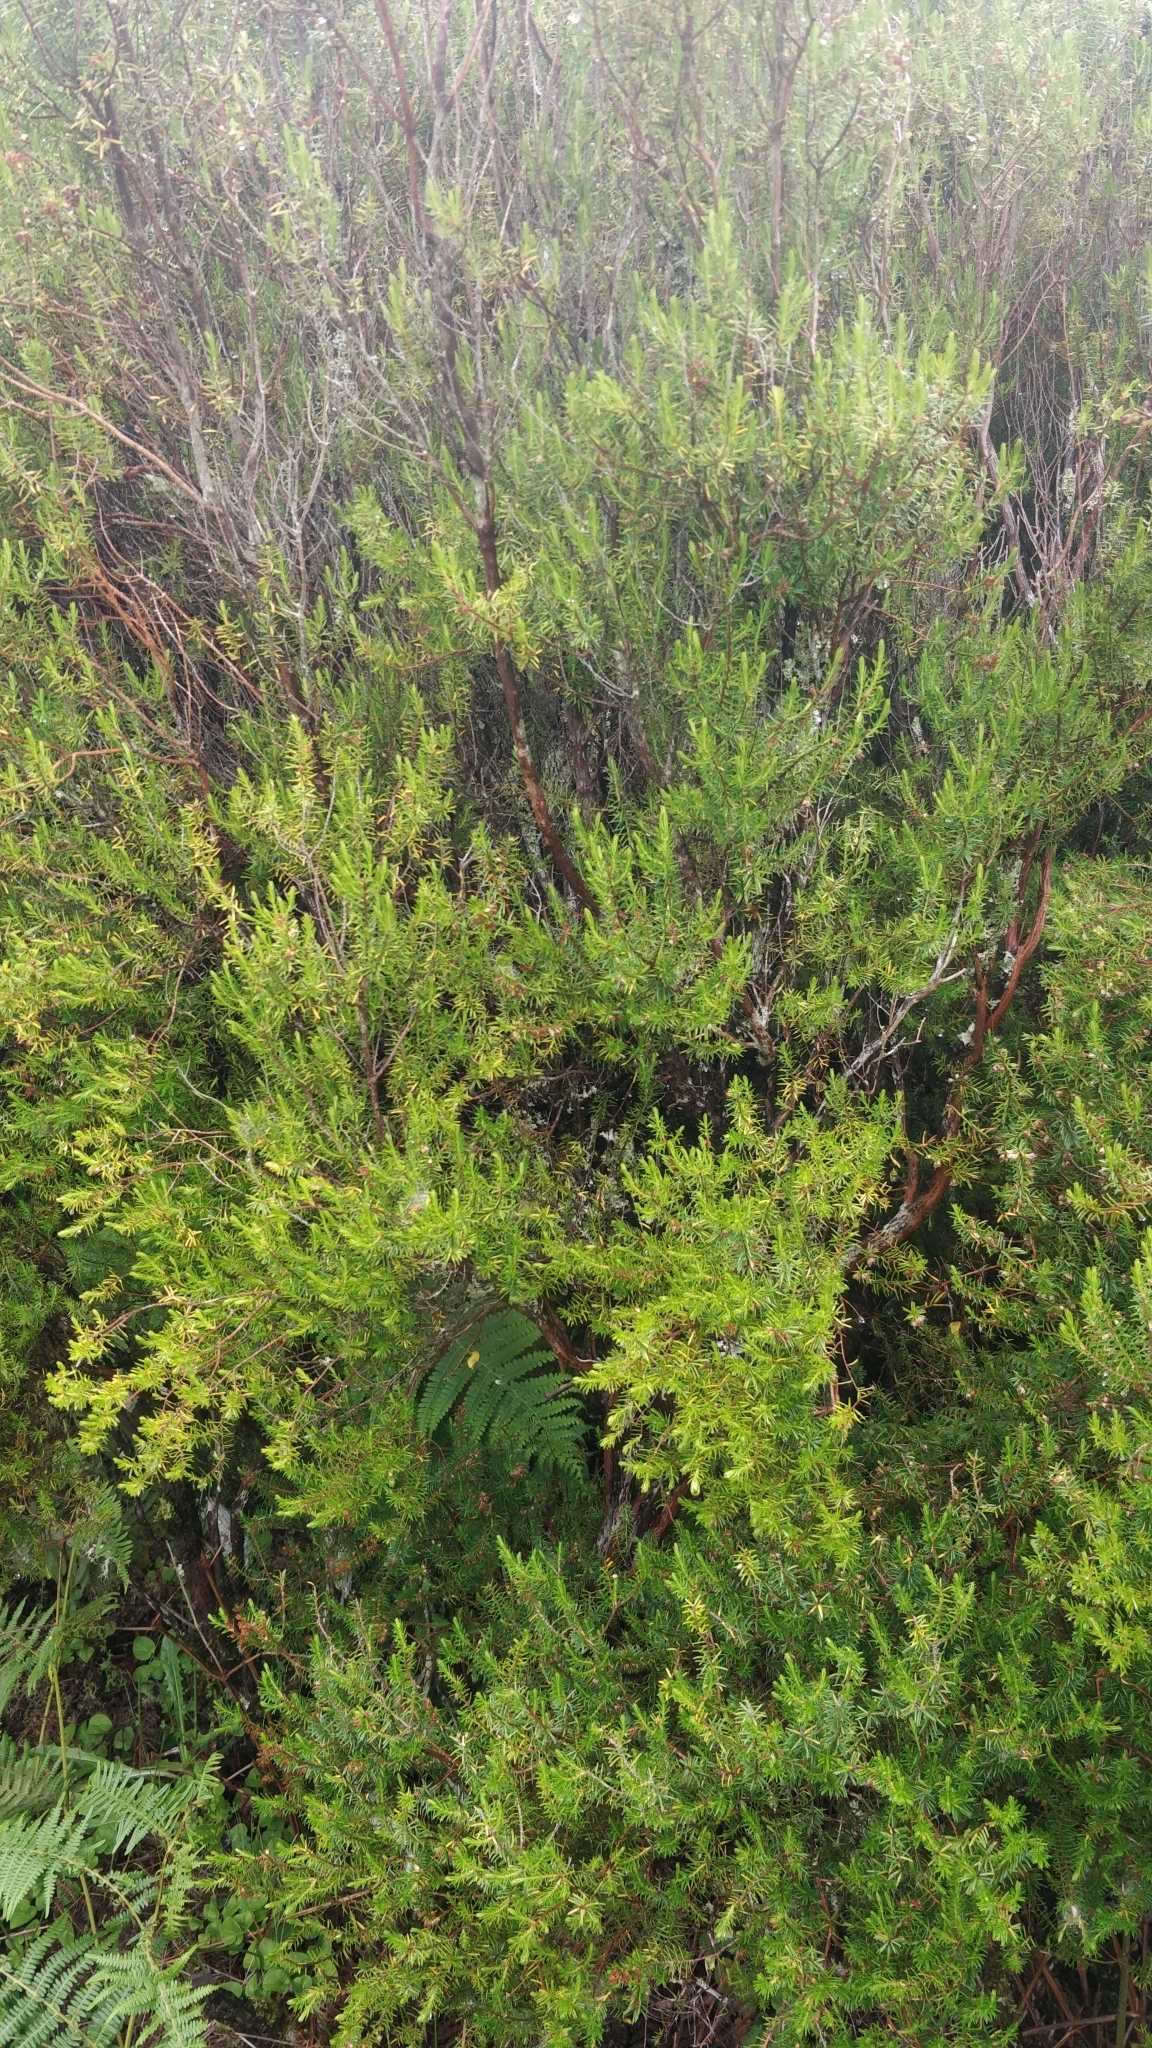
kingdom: Plantae
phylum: Tracheophyta
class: Magnoliopsida
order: Ericales
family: Ericaceae
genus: Erica
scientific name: Erica platycodon
